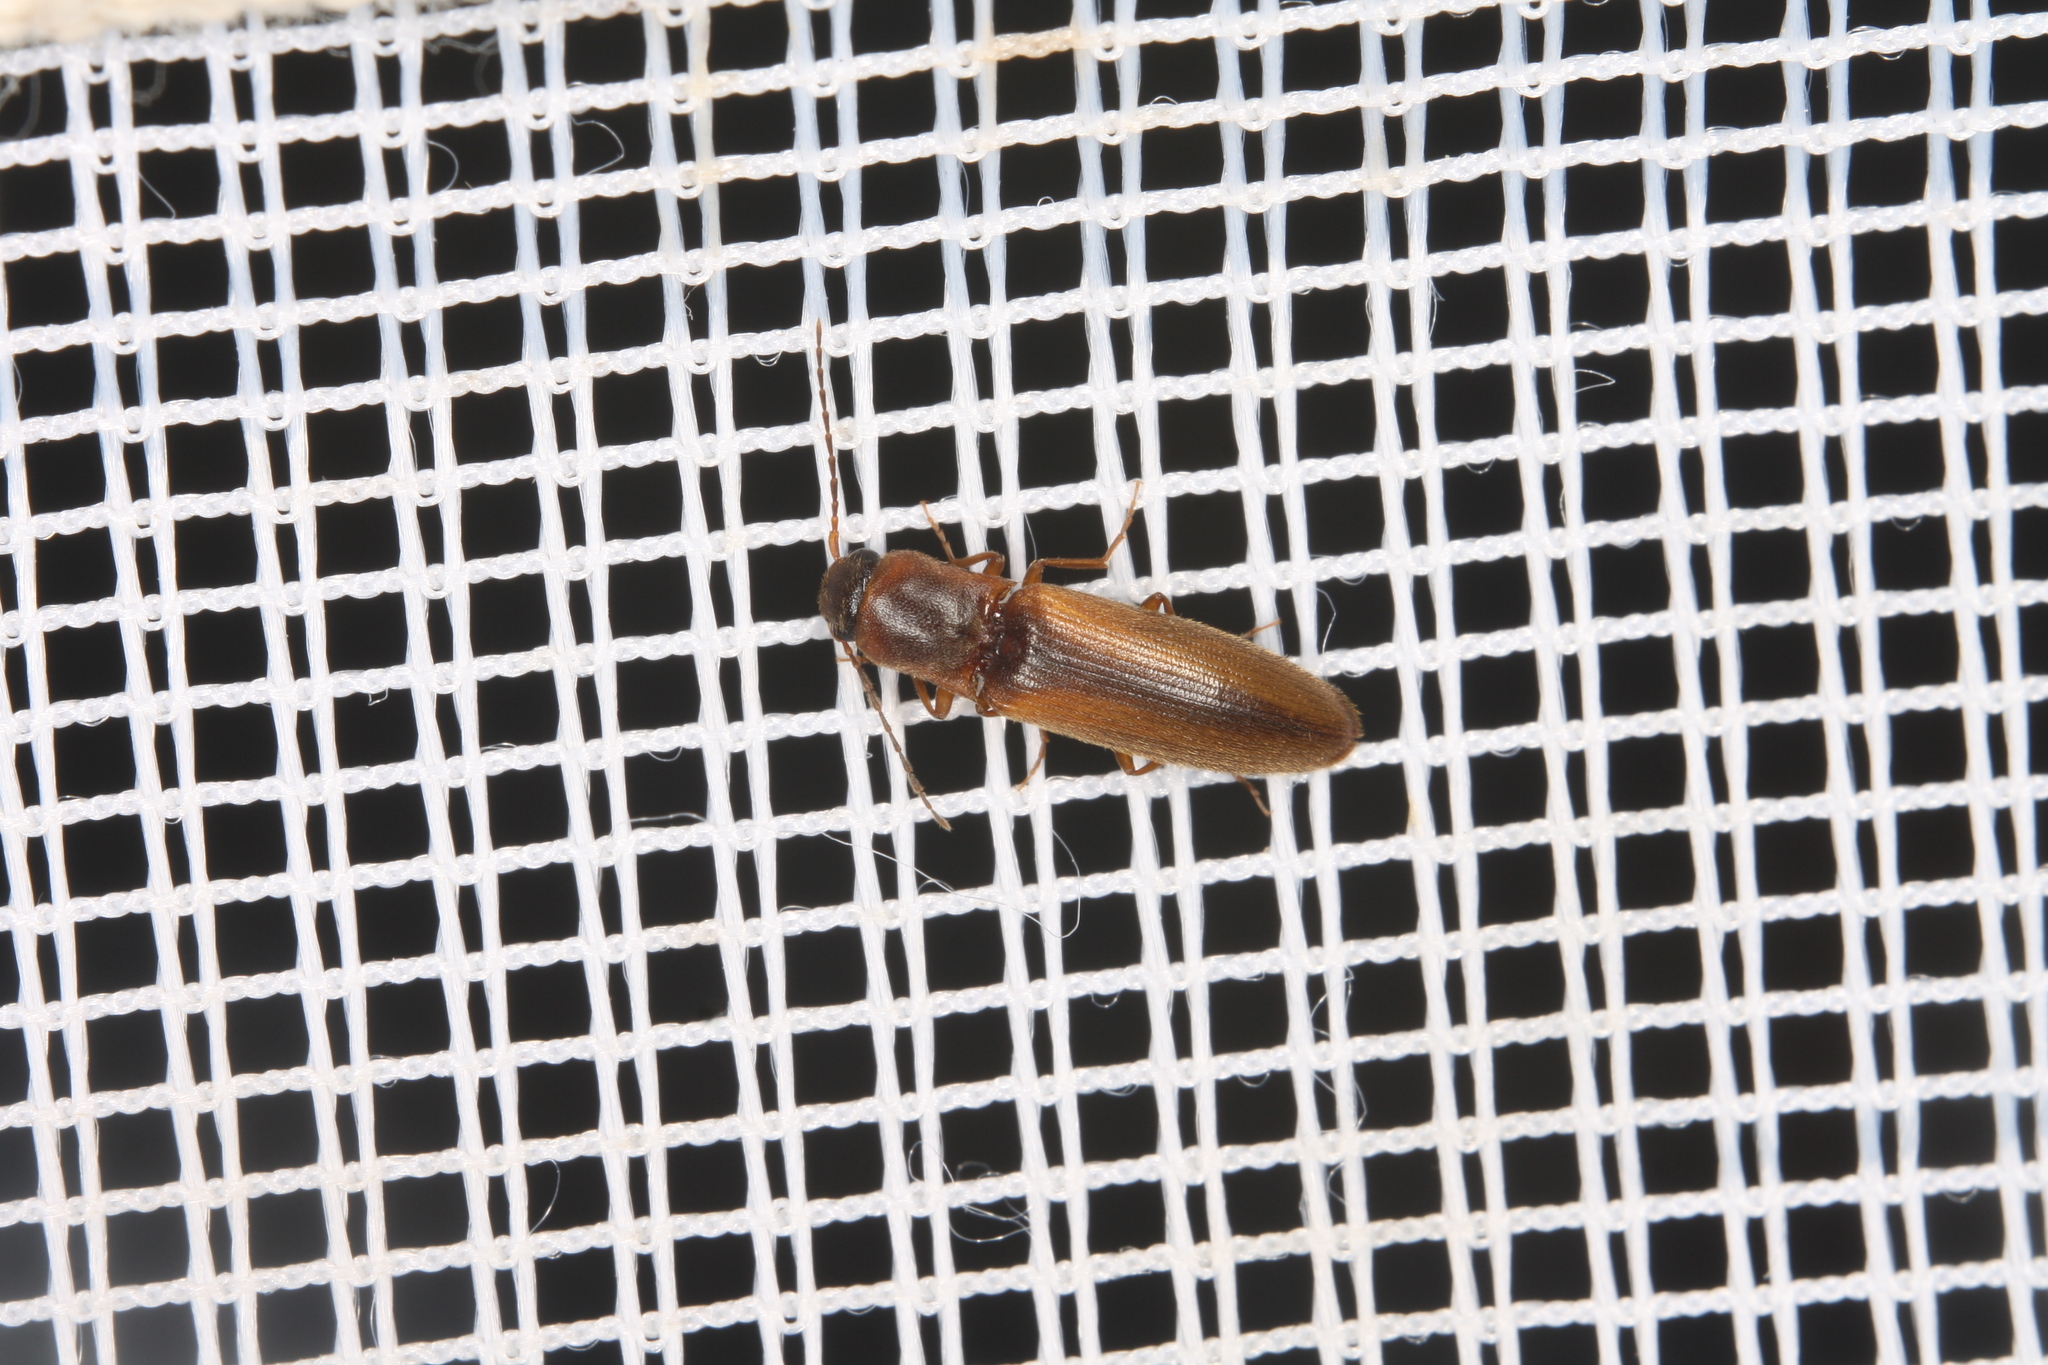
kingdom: Animalia
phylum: Arthropoda
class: Insecta
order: Coleoptera
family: Elateridae
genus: Dalopius
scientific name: Dalopius marginatus
